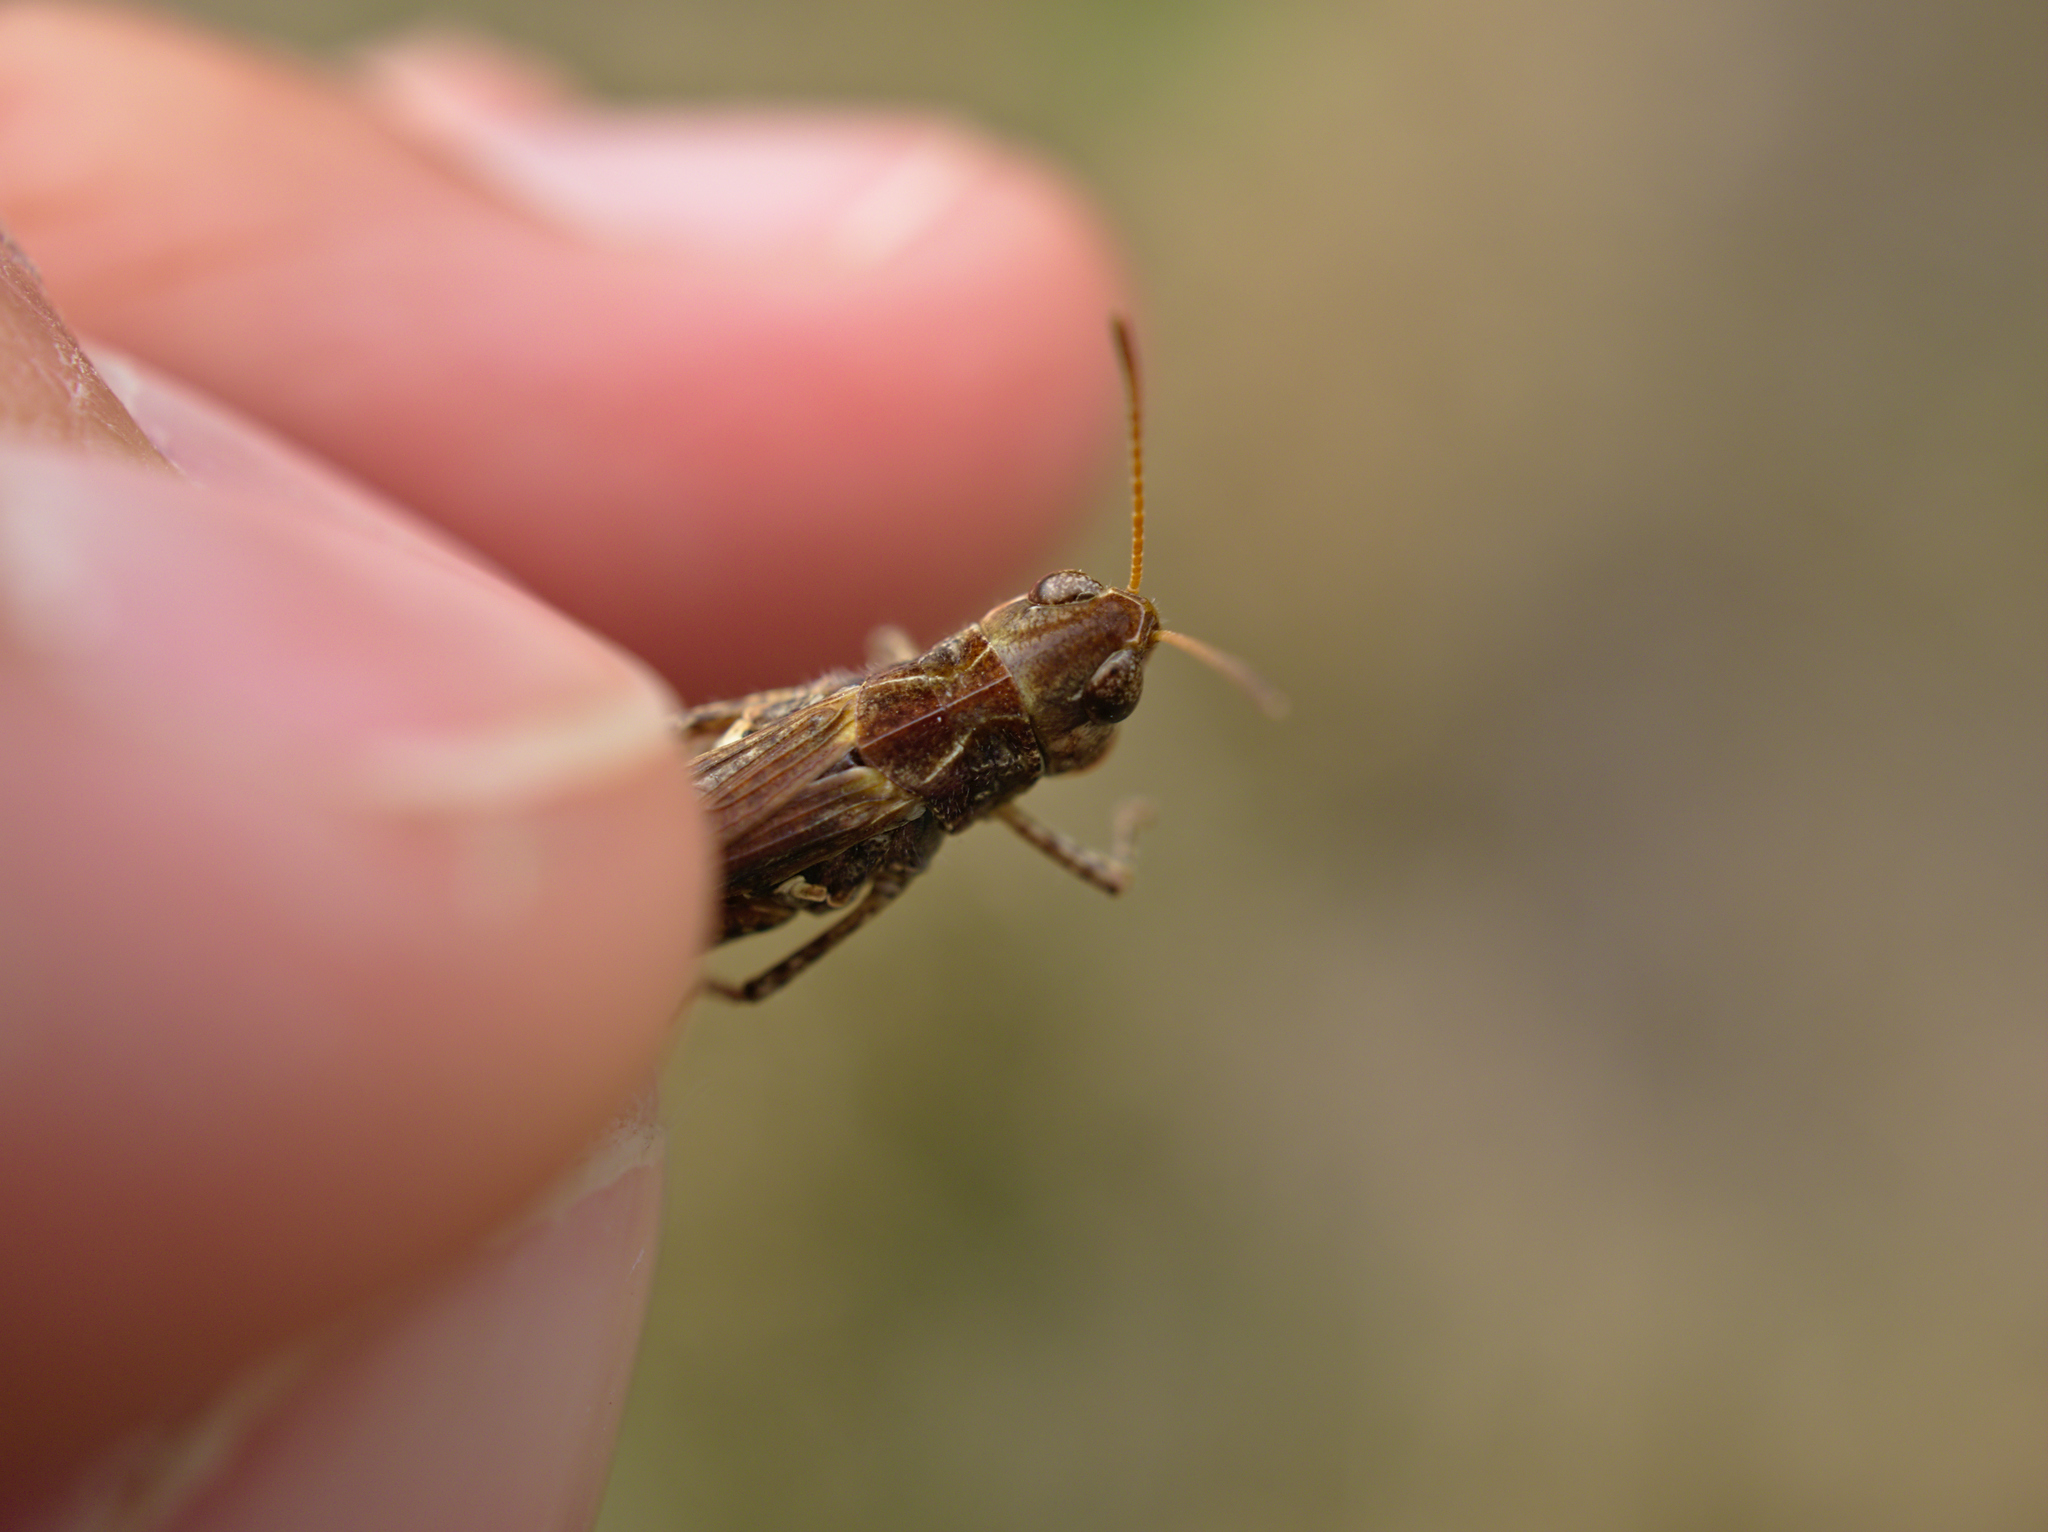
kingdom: Animalia
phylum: Arthropoda
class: Insecta
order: Orthoptera
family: Acrididae
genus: Myrmeleotettix
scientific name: Myrmeleotettix maculatus
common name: Mottled grasshopper
